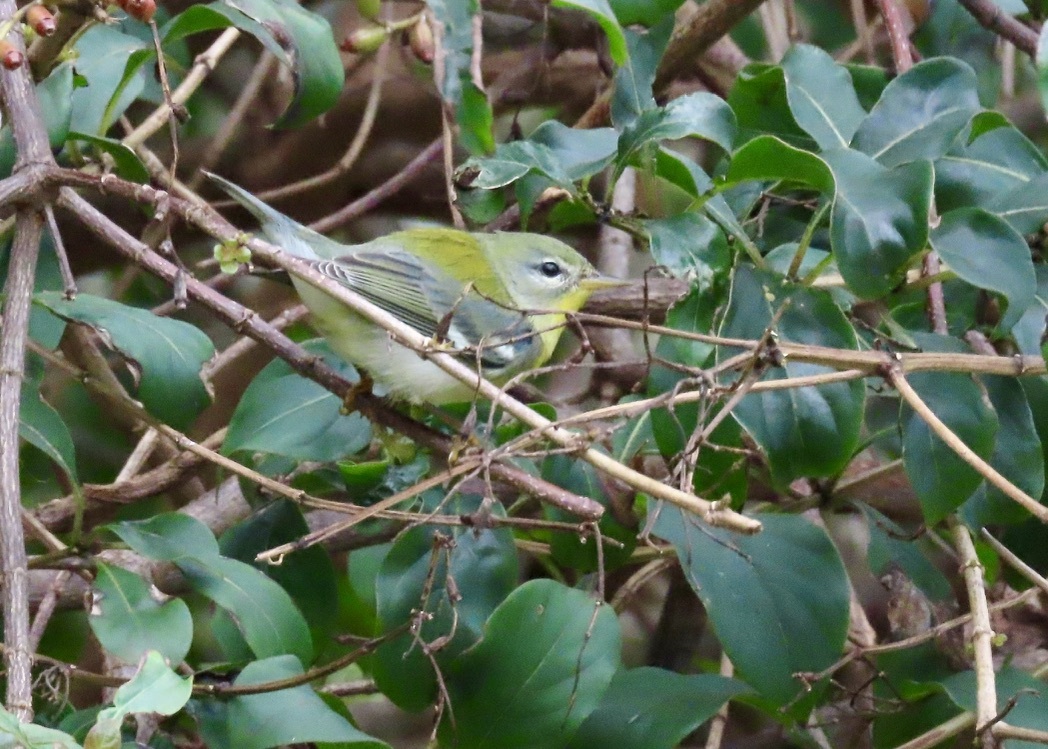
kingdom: Animalia
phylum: Chordata
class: Aves
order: Passeriformes
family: Parulidae
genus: Setophaga
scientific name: Setophaga americana
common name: Northern parula
